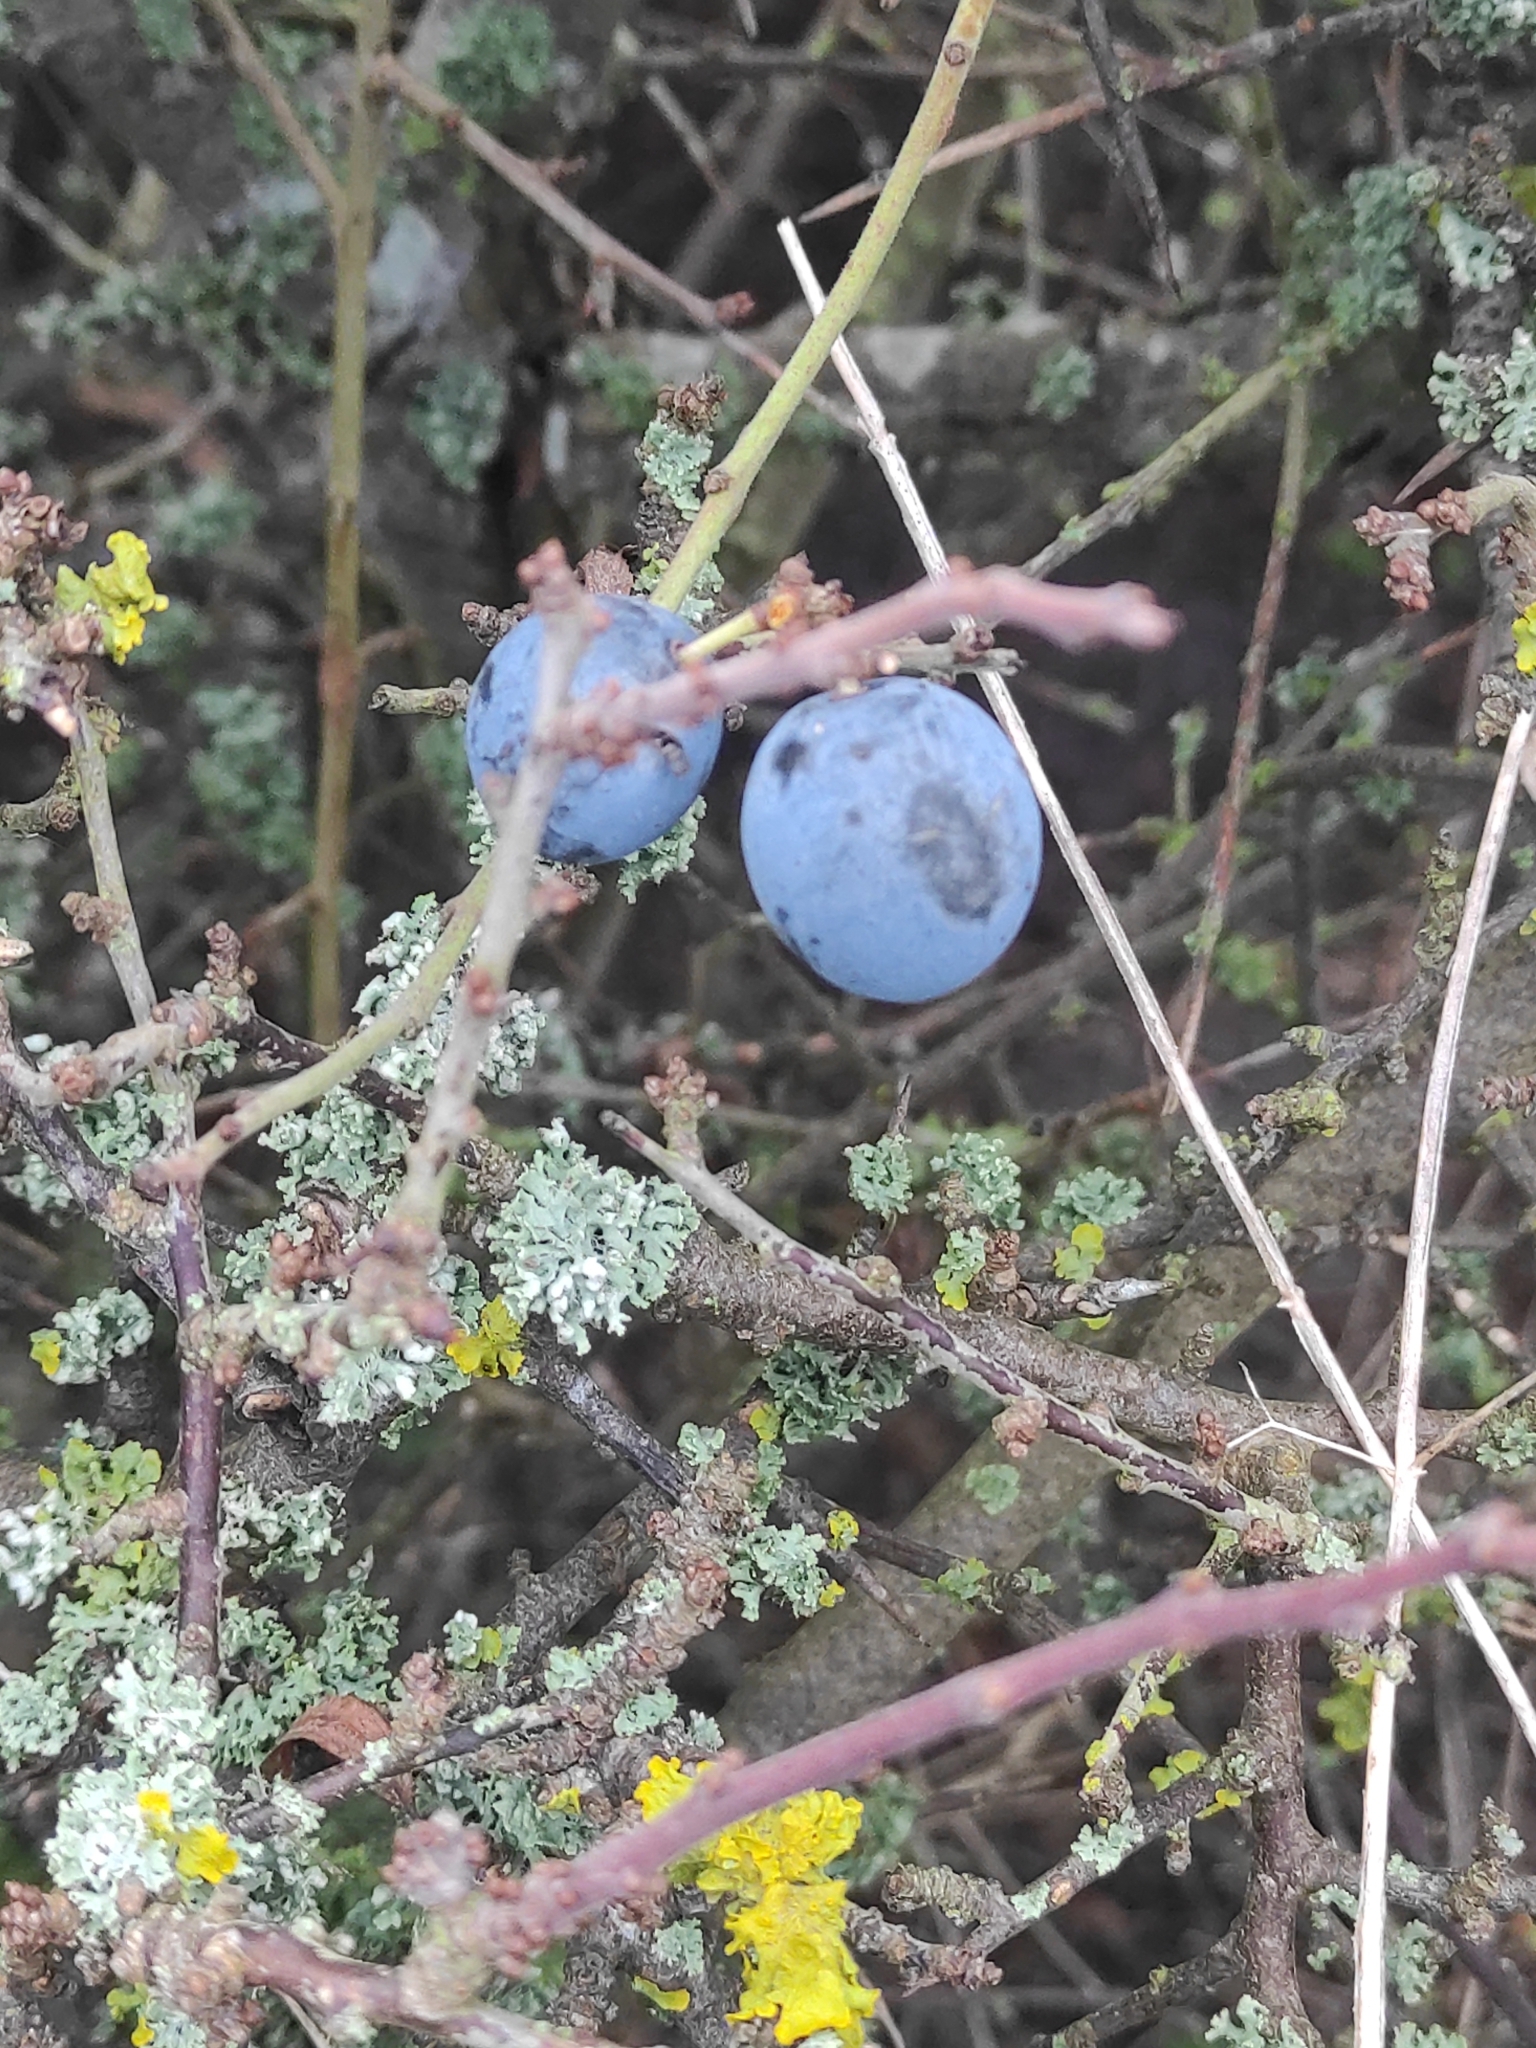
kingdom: Plantae
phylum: Tracheophyta
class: Magnoliopsida
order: Rosales
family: Rosaceae
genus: Prunus
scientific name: Prunus spinosa
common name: Blackthorn
